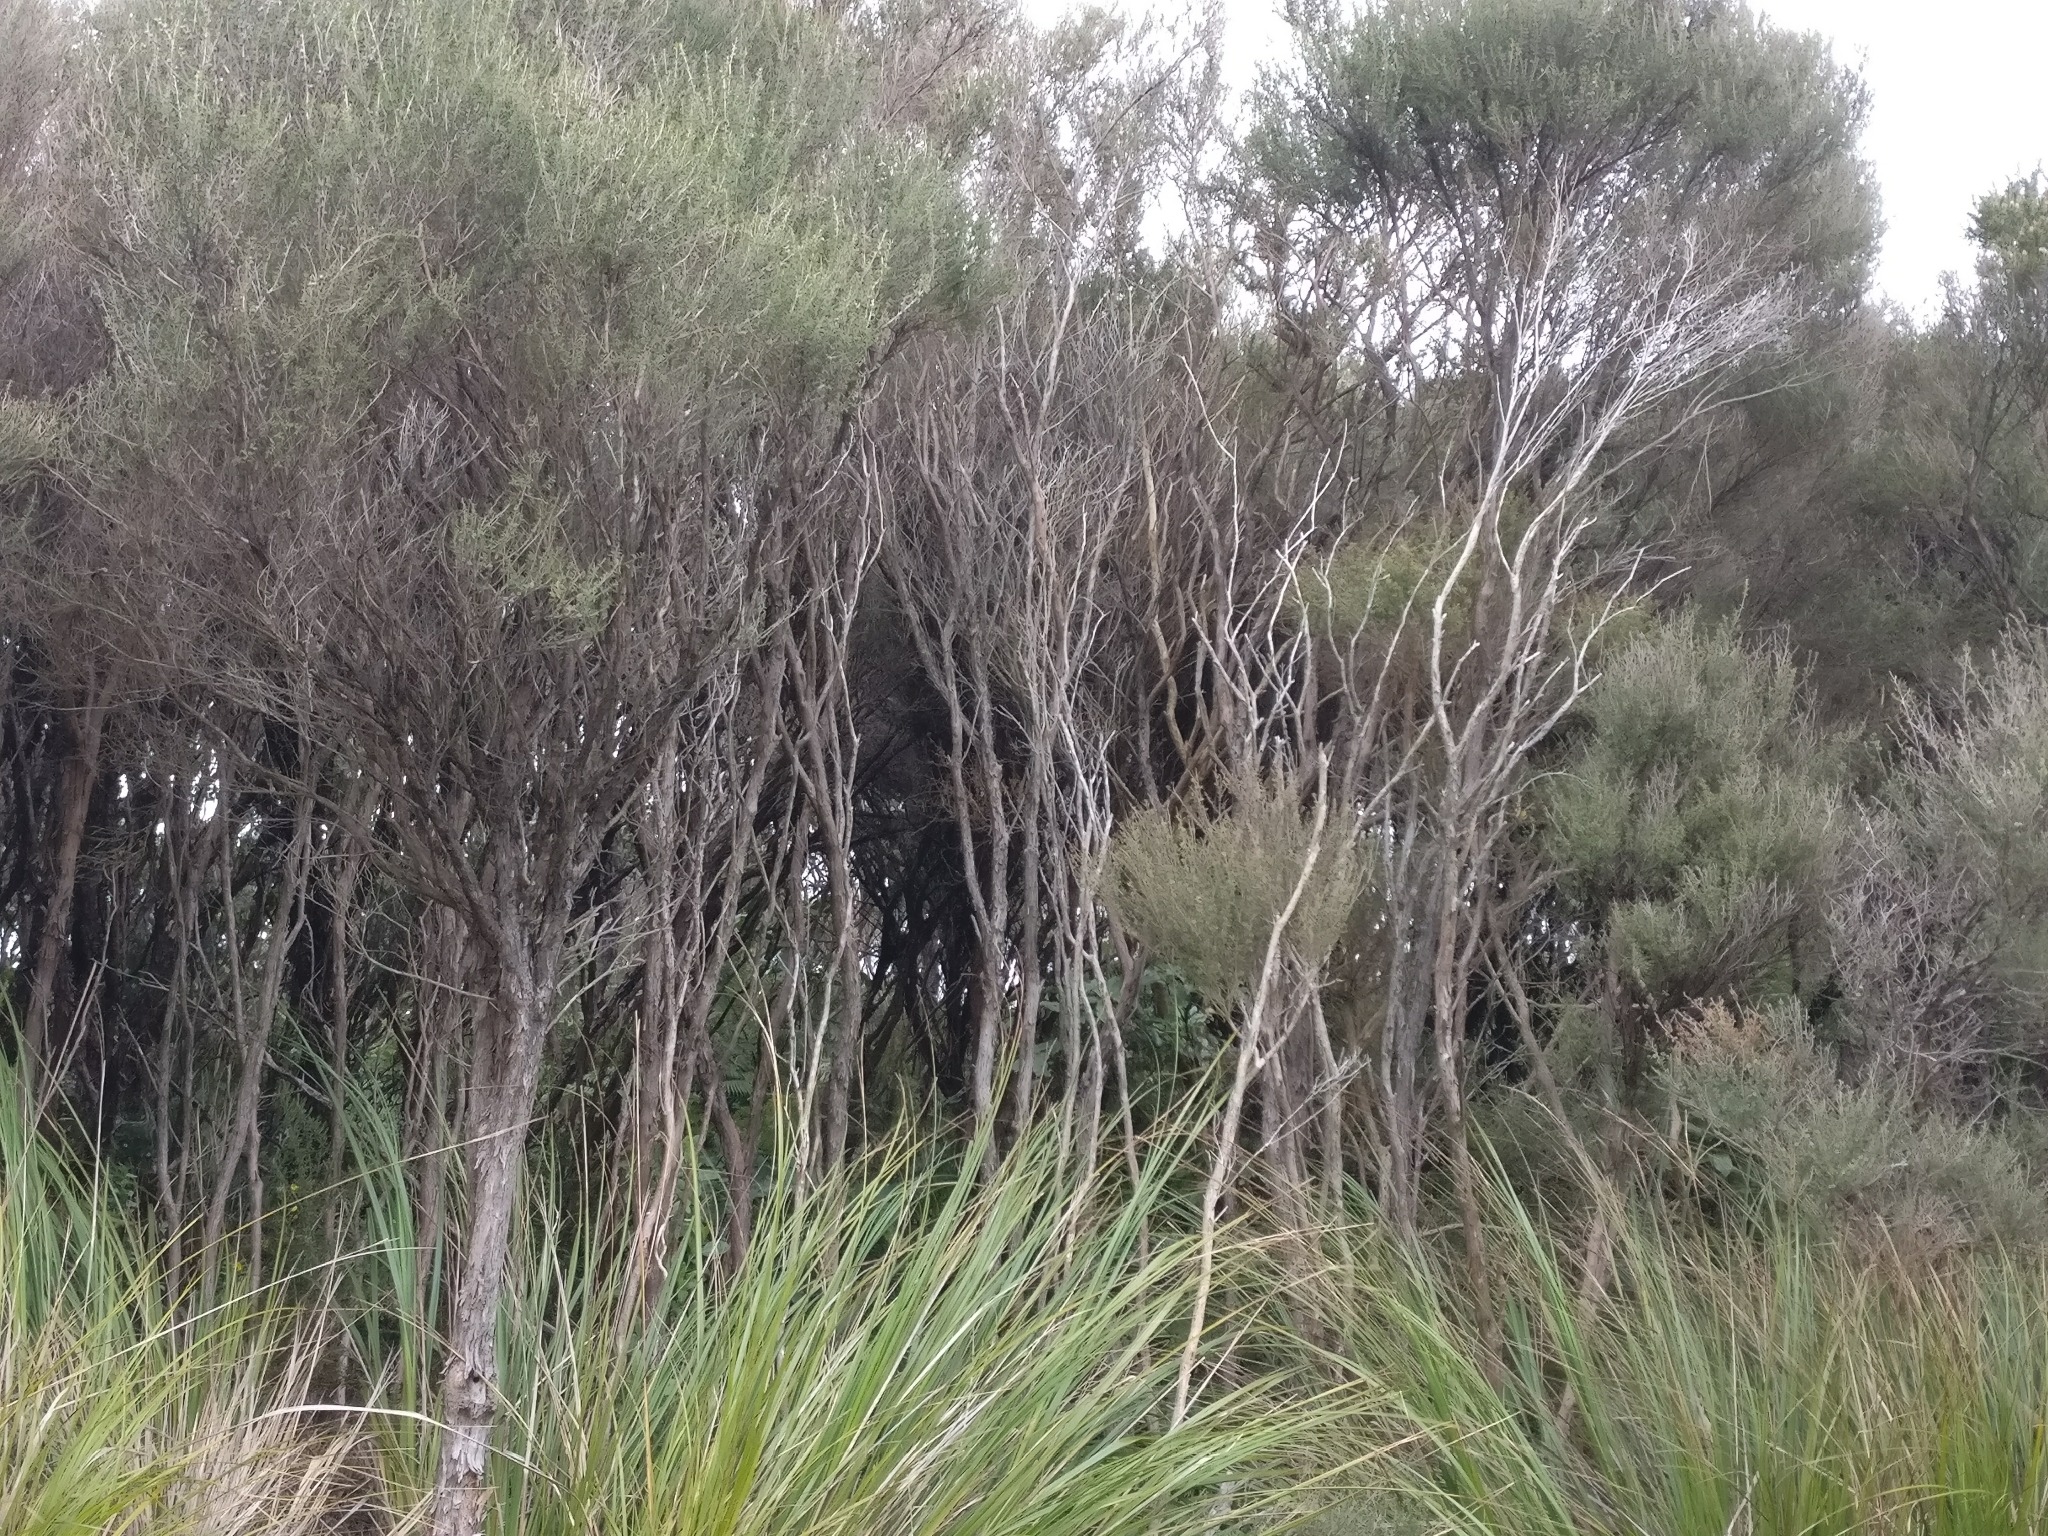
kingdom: Plantae
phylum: Tracheophyta
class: Magnoliopsida
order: Myrtales
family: Myrtaceae
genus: Leptospermum
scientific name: Leptospermum scoparium
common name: Broom tea-tree
